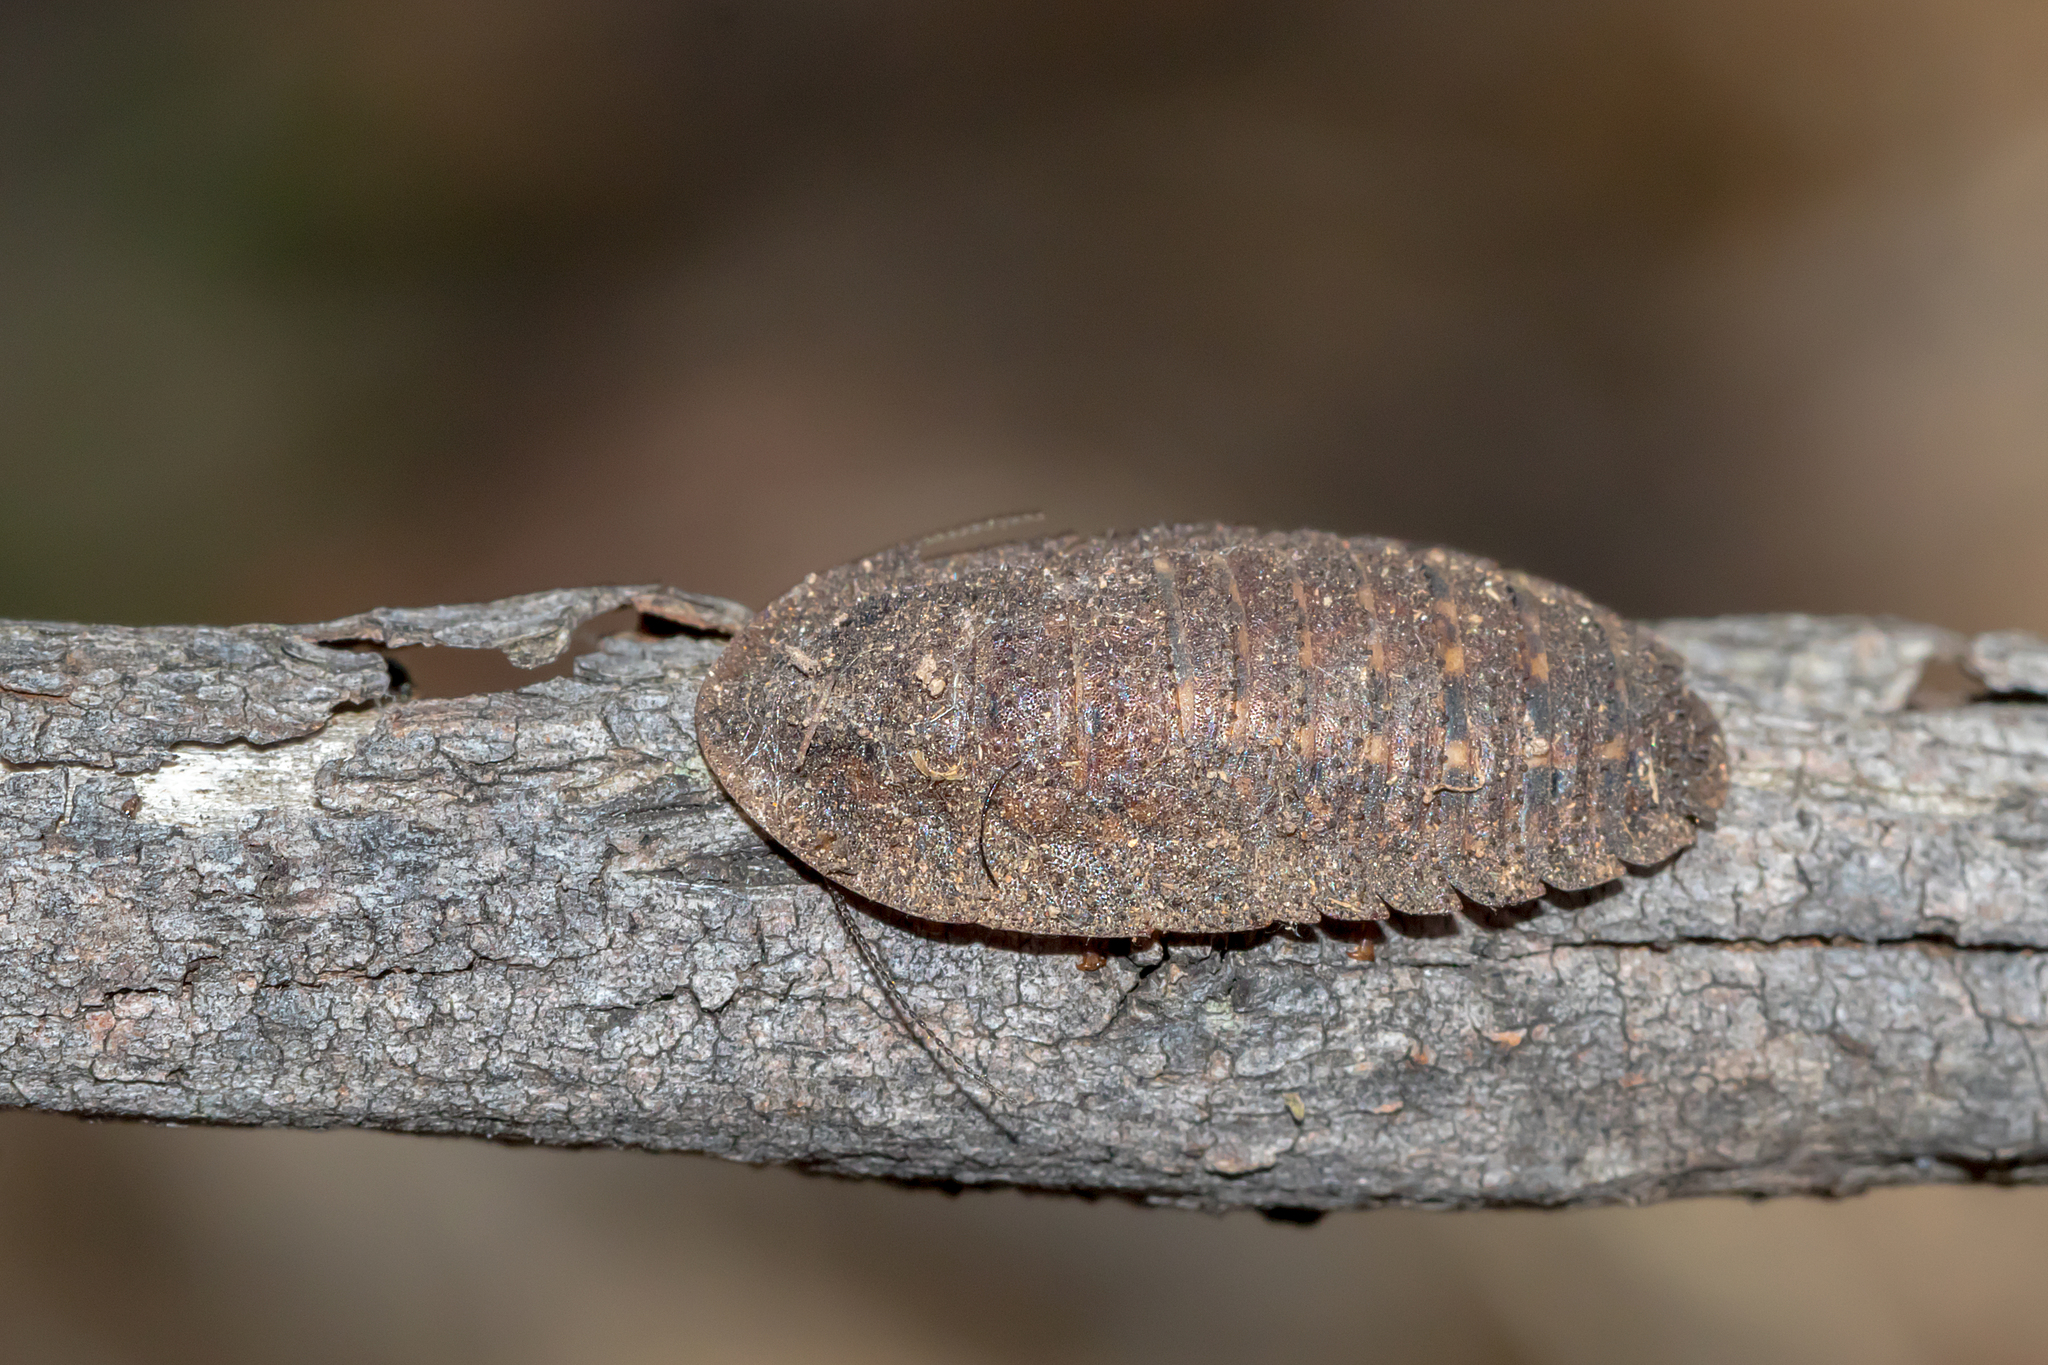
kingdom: Animalia
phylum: Arthropoda
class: Insecta
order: Blattodea
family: Blaberidae
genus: Laxta
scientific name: Laxta granicollis
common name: Bark cockroach
